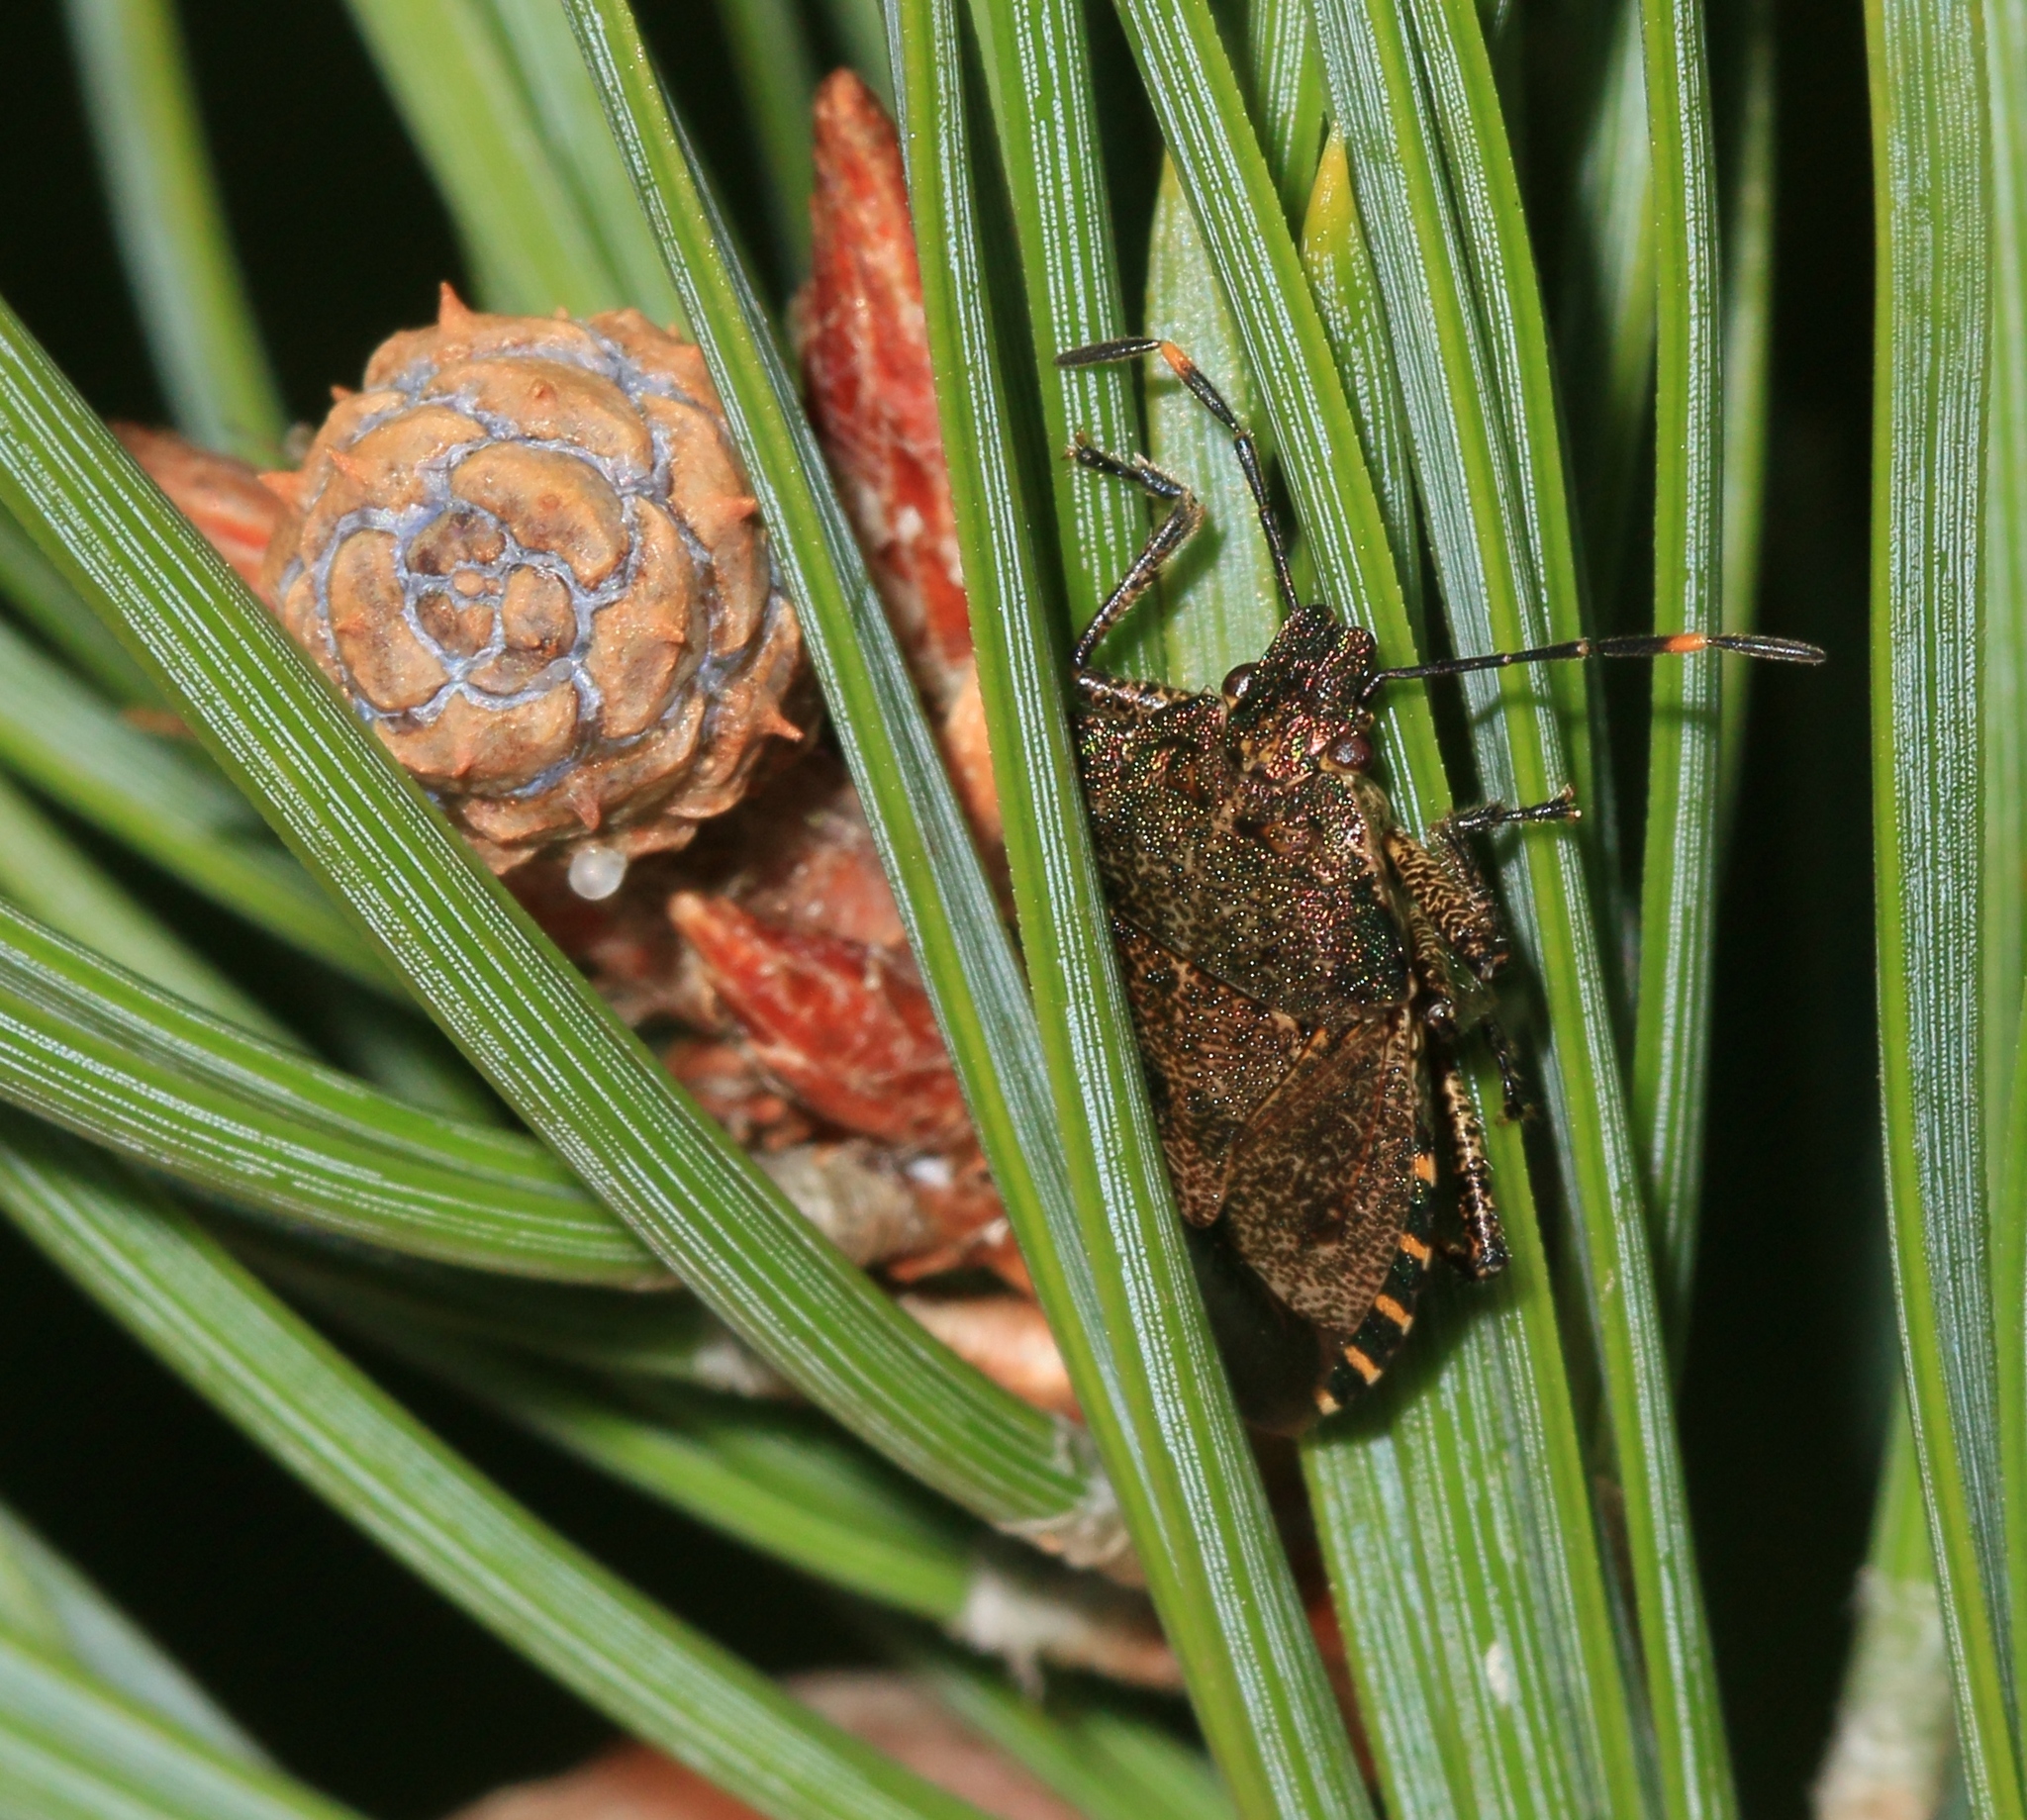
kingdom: Animalia
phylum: Arthropoda
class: Insecta
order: Hemiptera
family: Pentatomidae
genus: Troilus
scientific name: Troilus luridus
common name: Bronze shieldbug
